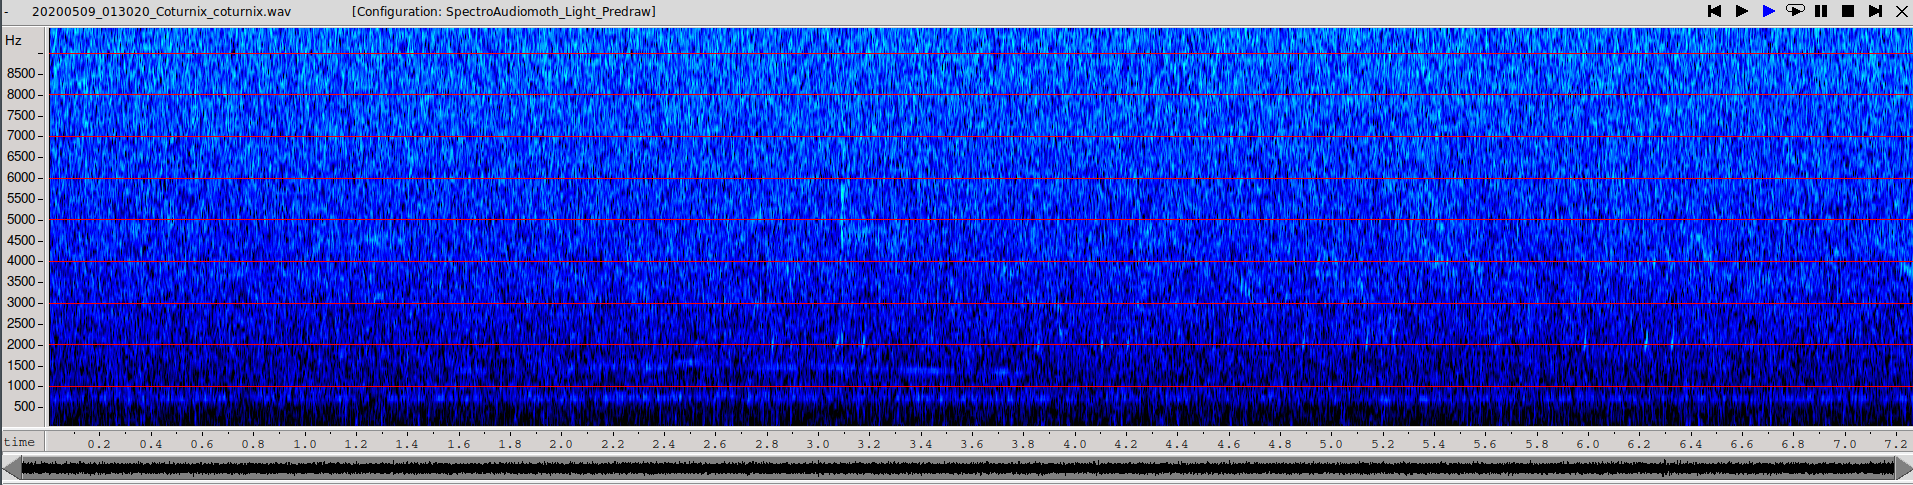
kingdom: Animalia
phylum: Chordata
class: Aves
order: Galliformes
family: Phasianidae
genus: Coturnix
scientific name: Coturnix coturnix
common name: Common quail
